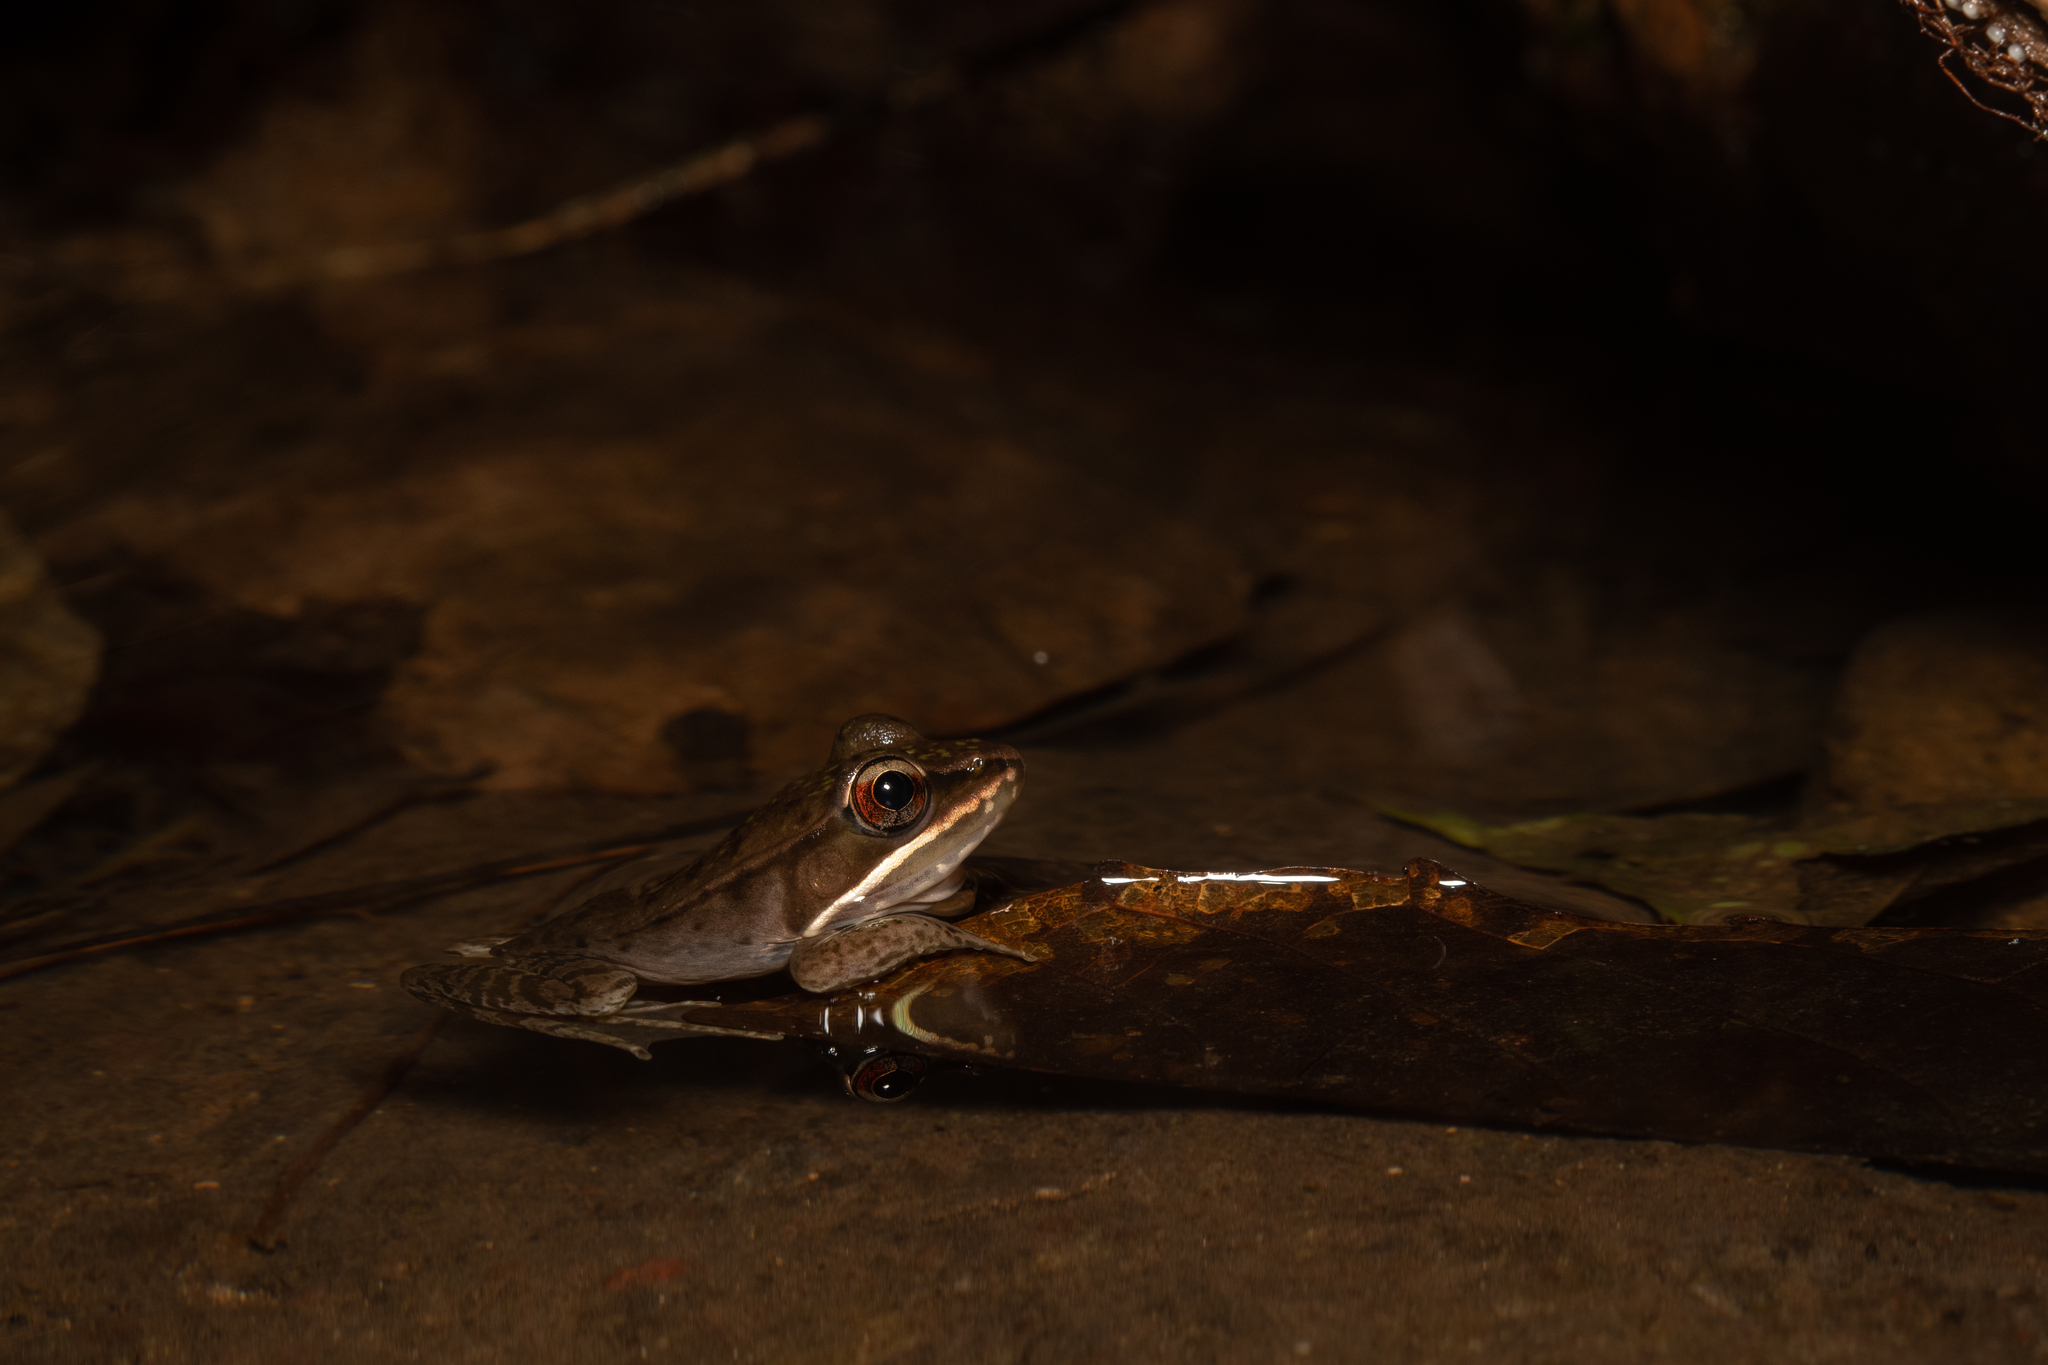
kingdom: Animalia
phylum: Chordata
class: Amphibia
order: Anura
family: Ranidae
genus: Lithobates
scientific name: Lithobates maculatus
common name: Highland frog
